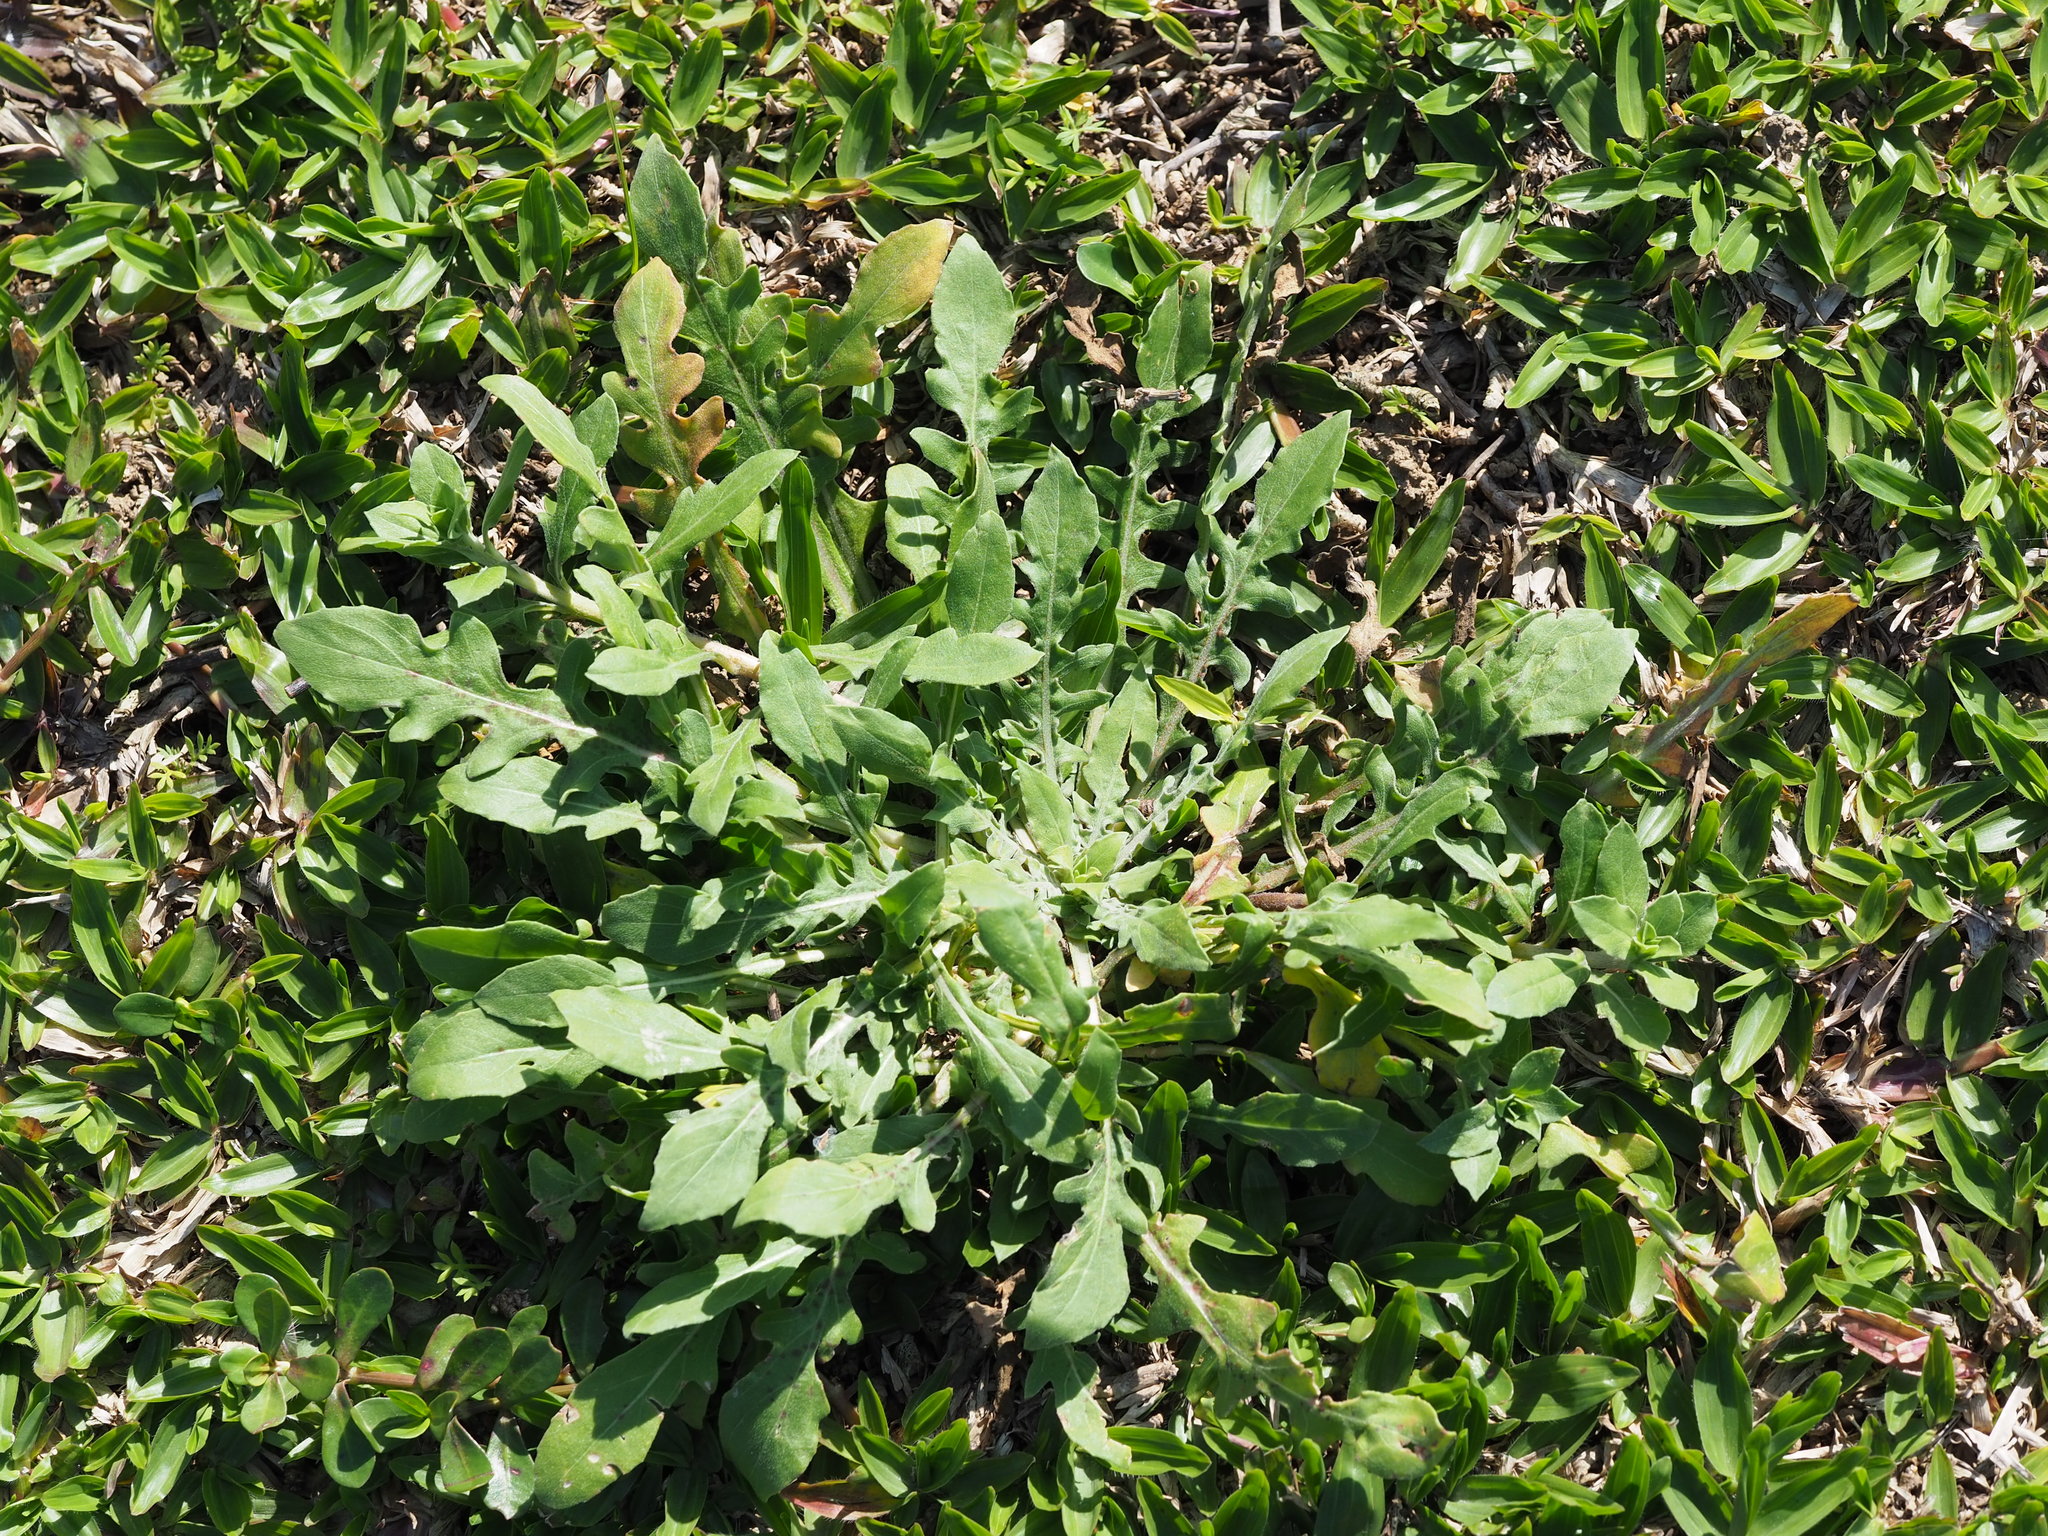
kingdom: Plantae
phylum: Tracheophyta
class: Magnoliopsida
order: Myrtales
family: Onagraceae
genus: Oenothera
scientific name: Oenothera laciniata
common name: Cut-leaved evening-primrose
